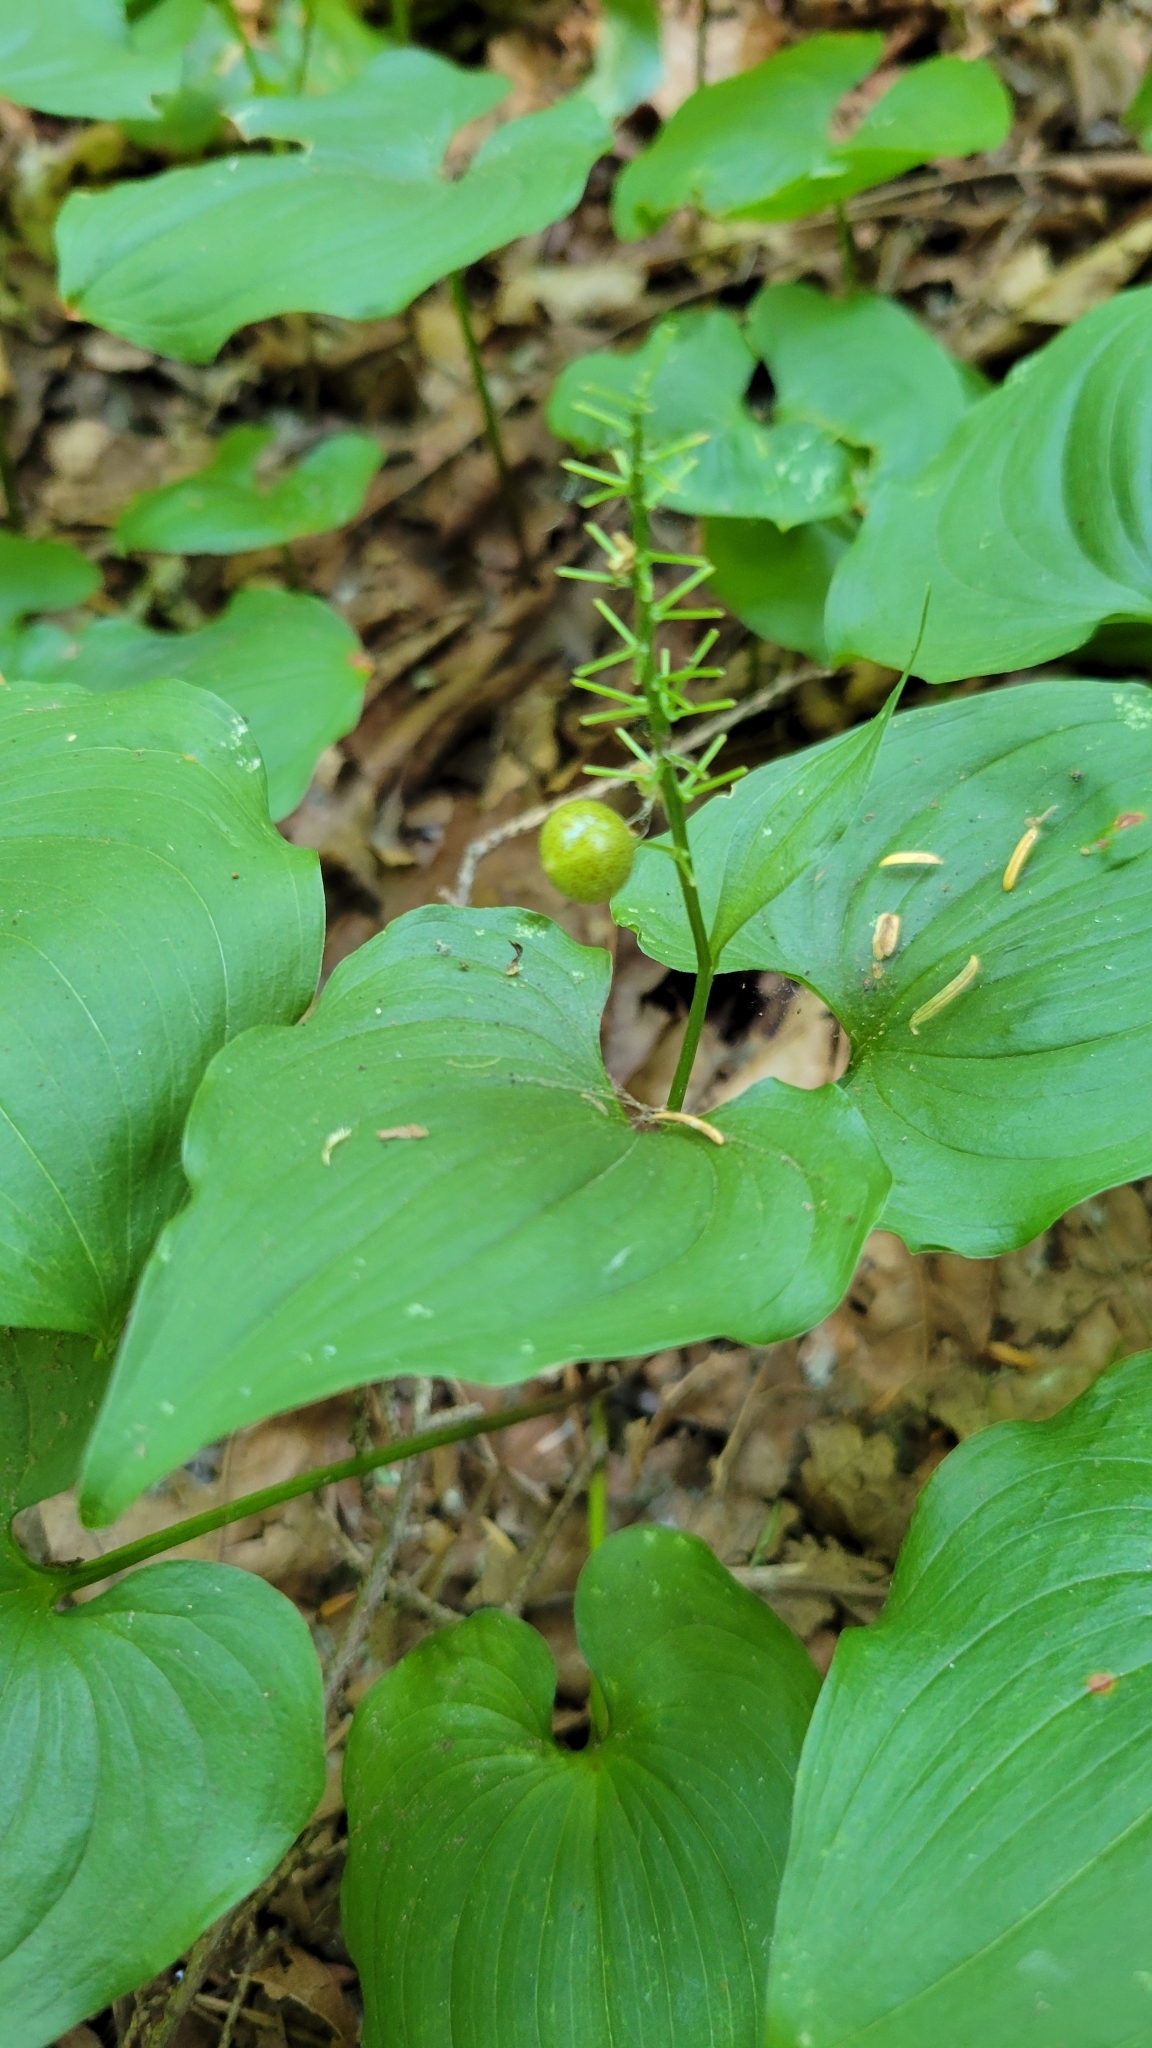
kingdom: Plantae
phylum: Tracheophyta
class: Liliopsida
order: Asparagales
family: Asparagaceae
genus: Maianthemum
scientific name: Maianthemum dilatatum
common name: False lily-of-the-valley
